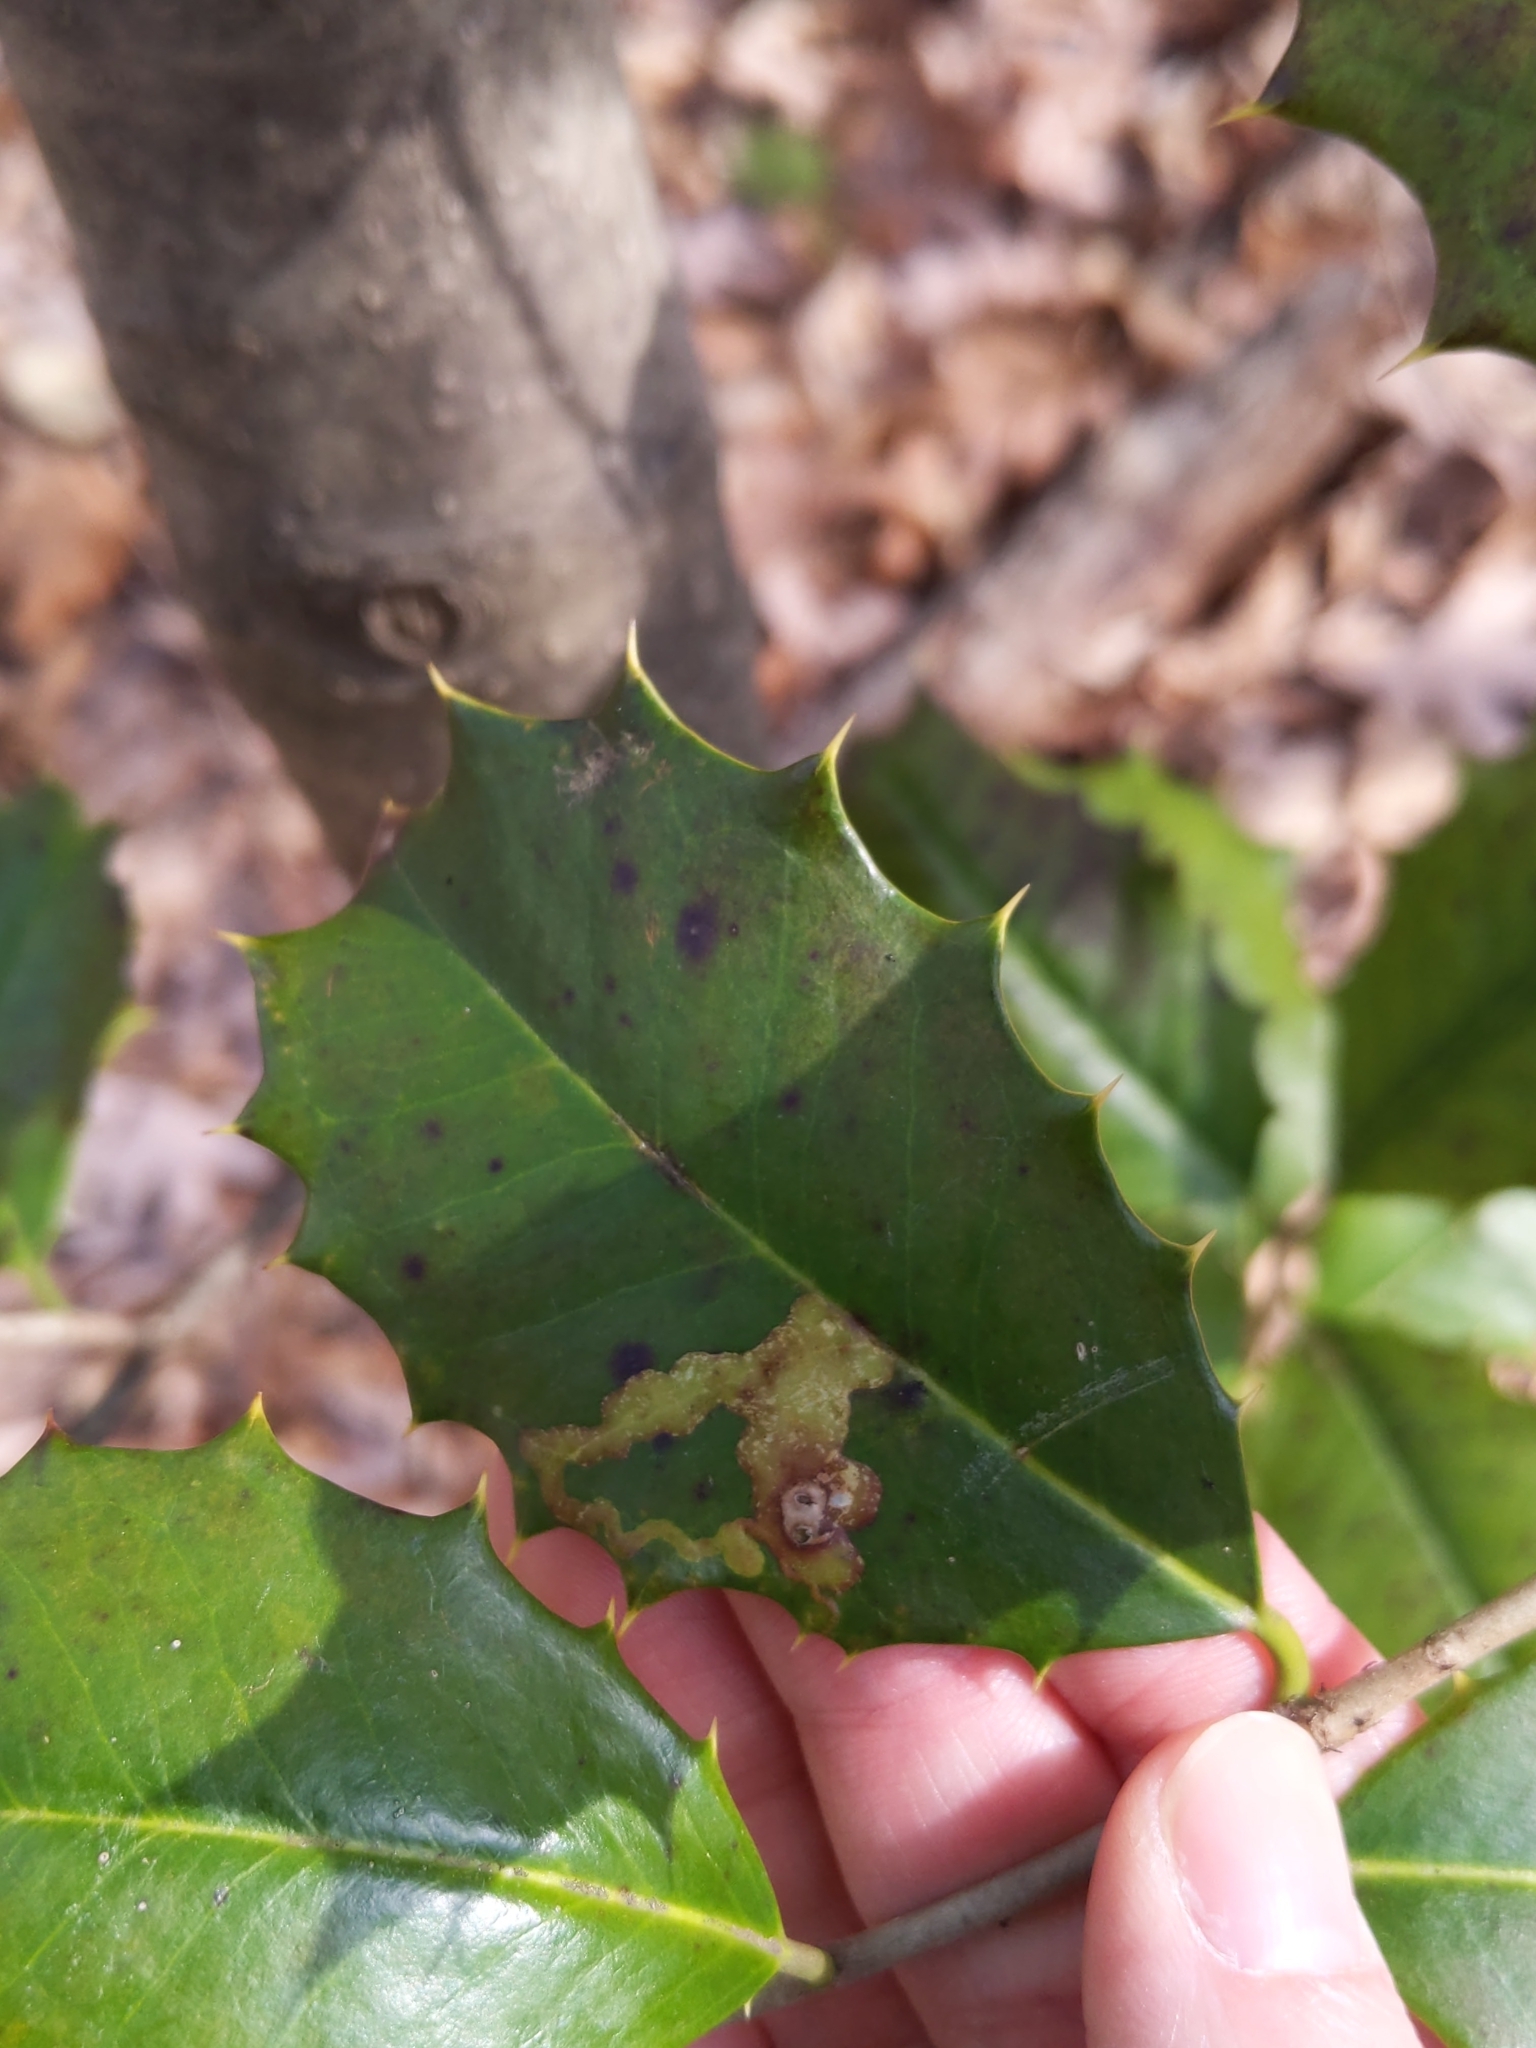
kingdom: Animalia
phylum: Arthropoda
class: Insecta
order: Diptera
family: Agromyzidae
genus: Phytomyza
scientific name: Phytomyza ilicicola
